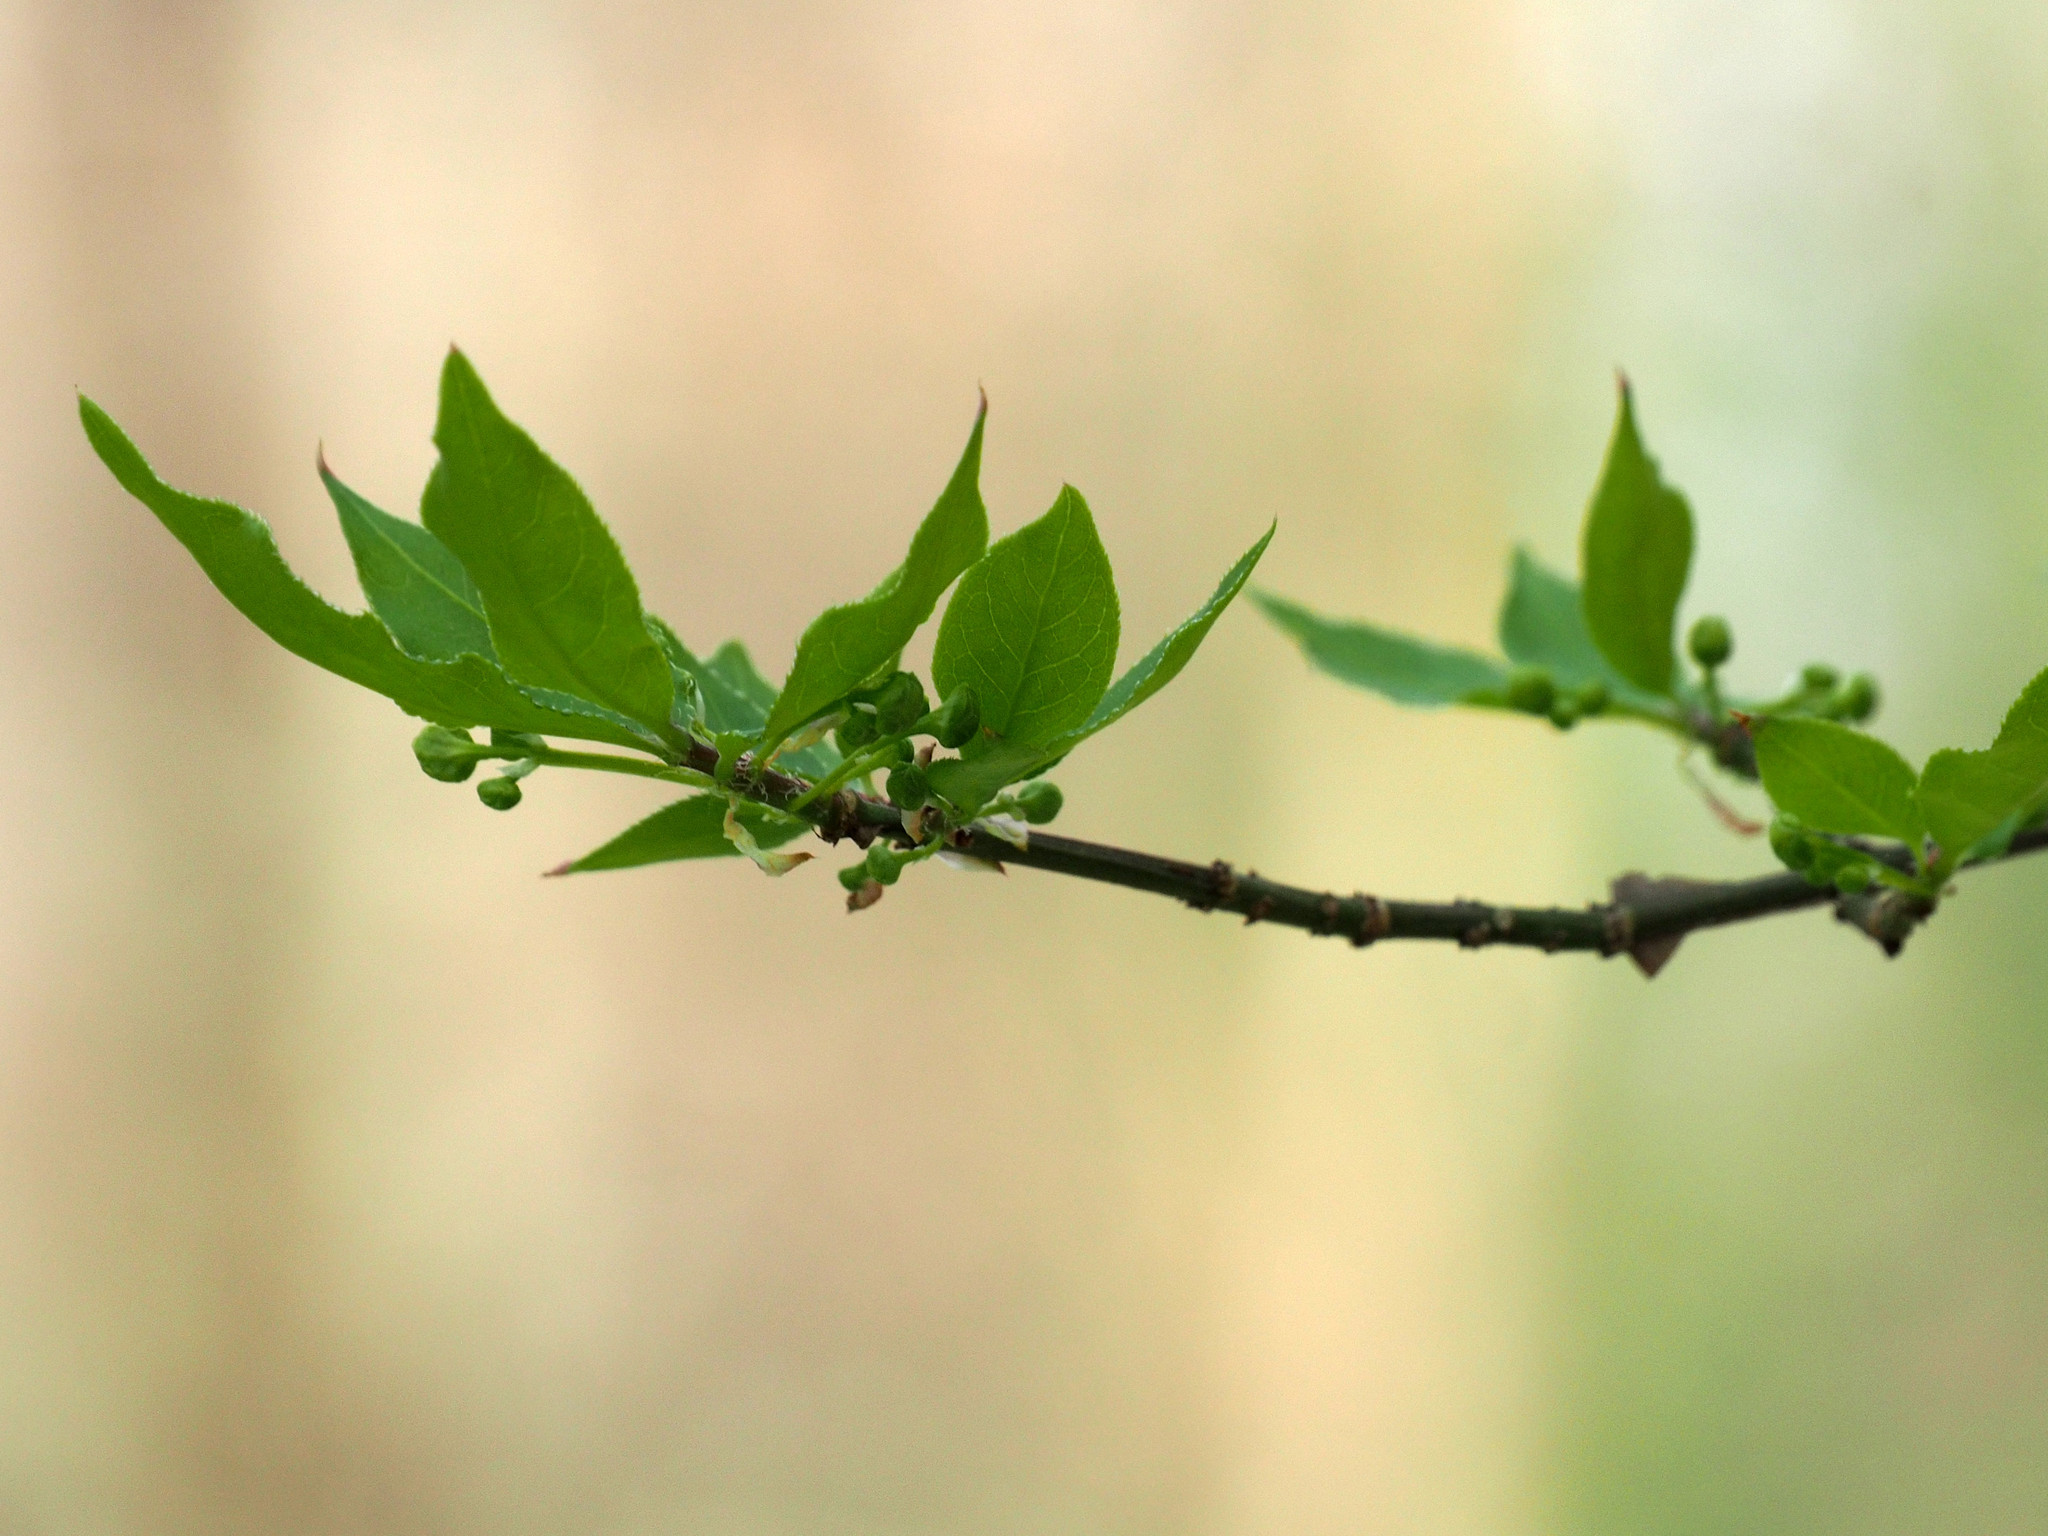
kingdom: Plantae
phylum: Tracheophyta
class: Magnoliopsida
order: Celastrales
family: Celastraceae
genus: Euonymus
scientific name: Euonymus alatus
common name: Winged euonymus
